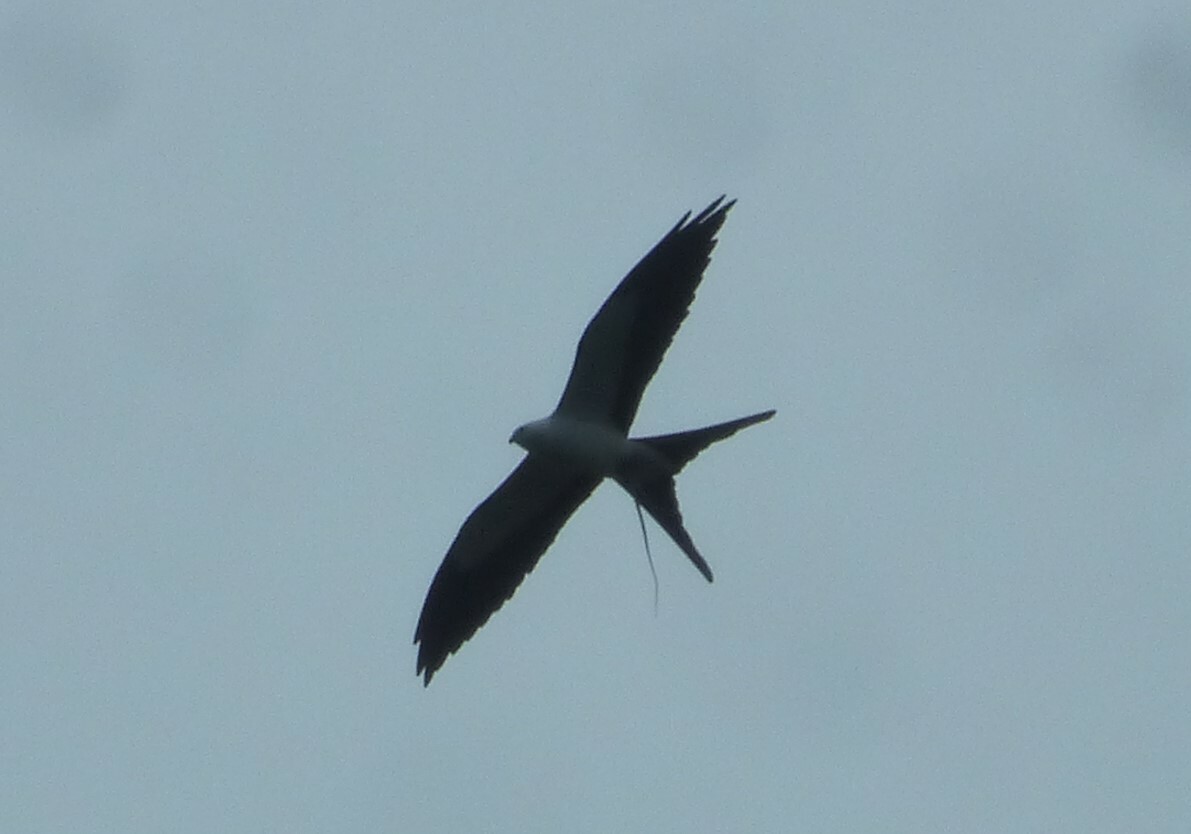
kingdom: Animalia
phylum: Chordata
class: Aves
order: Accipitriformes
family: Accipitridae
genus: Elanoides
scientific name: Elanoides forficatus
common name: Swallow-tailed kite
